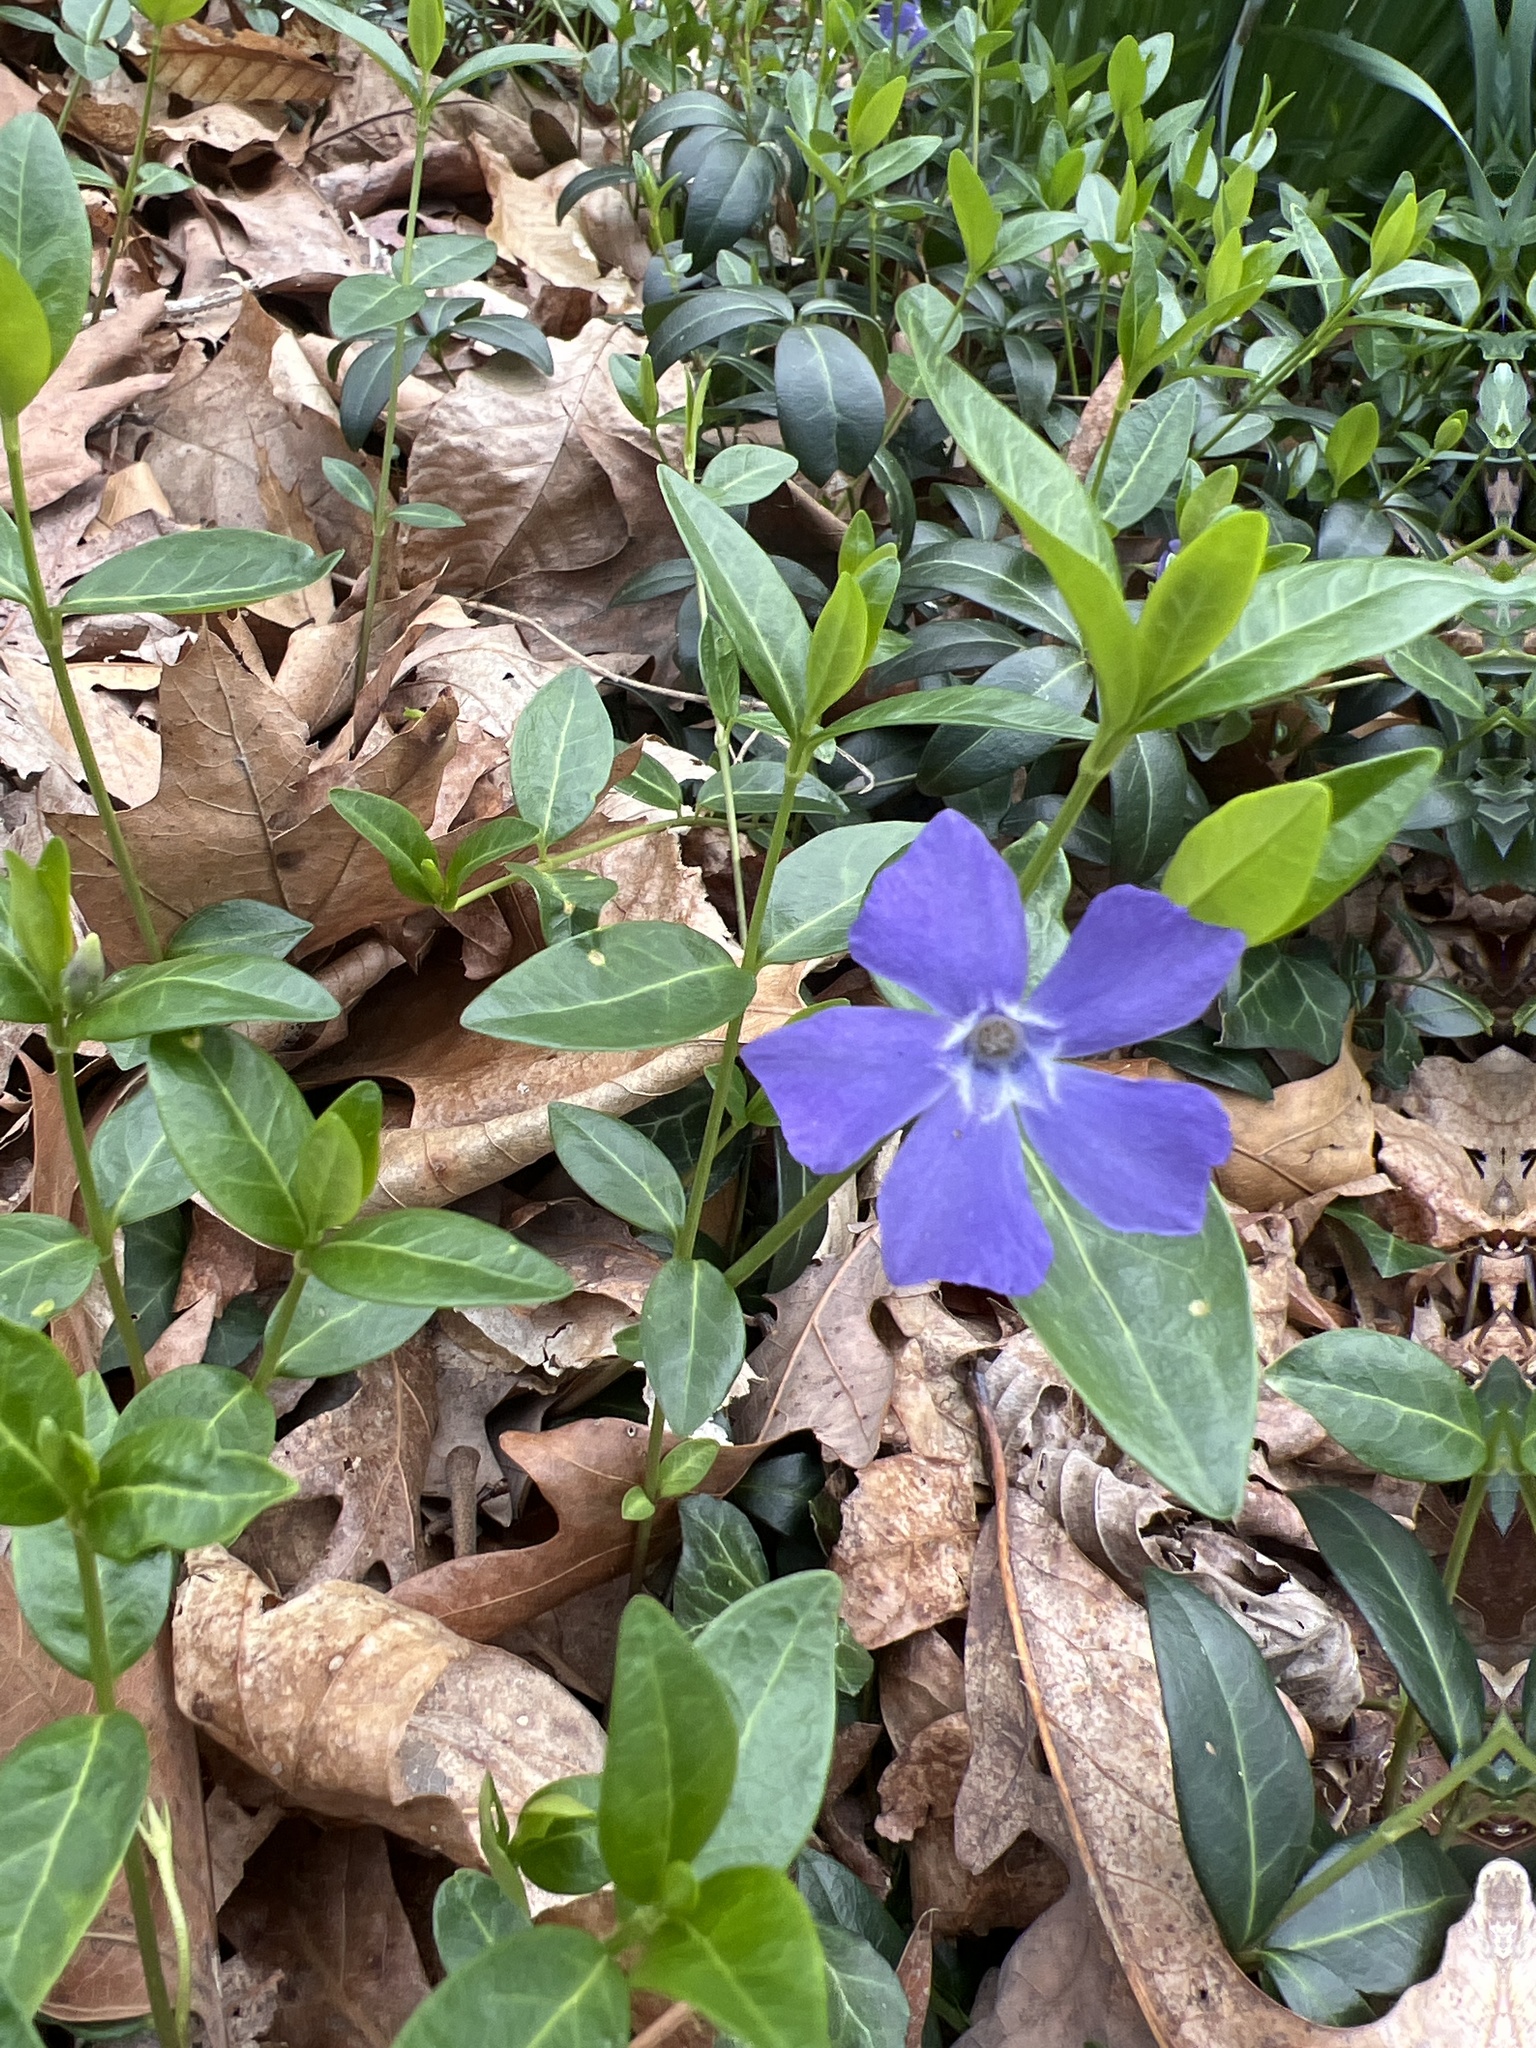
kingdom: Plantae
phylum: Tracheophyta
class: Magnoliopsida
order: Gentianales
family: Apocynaceae
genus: Vinca
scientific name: Vinca minor
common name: Lesser periwinkle
